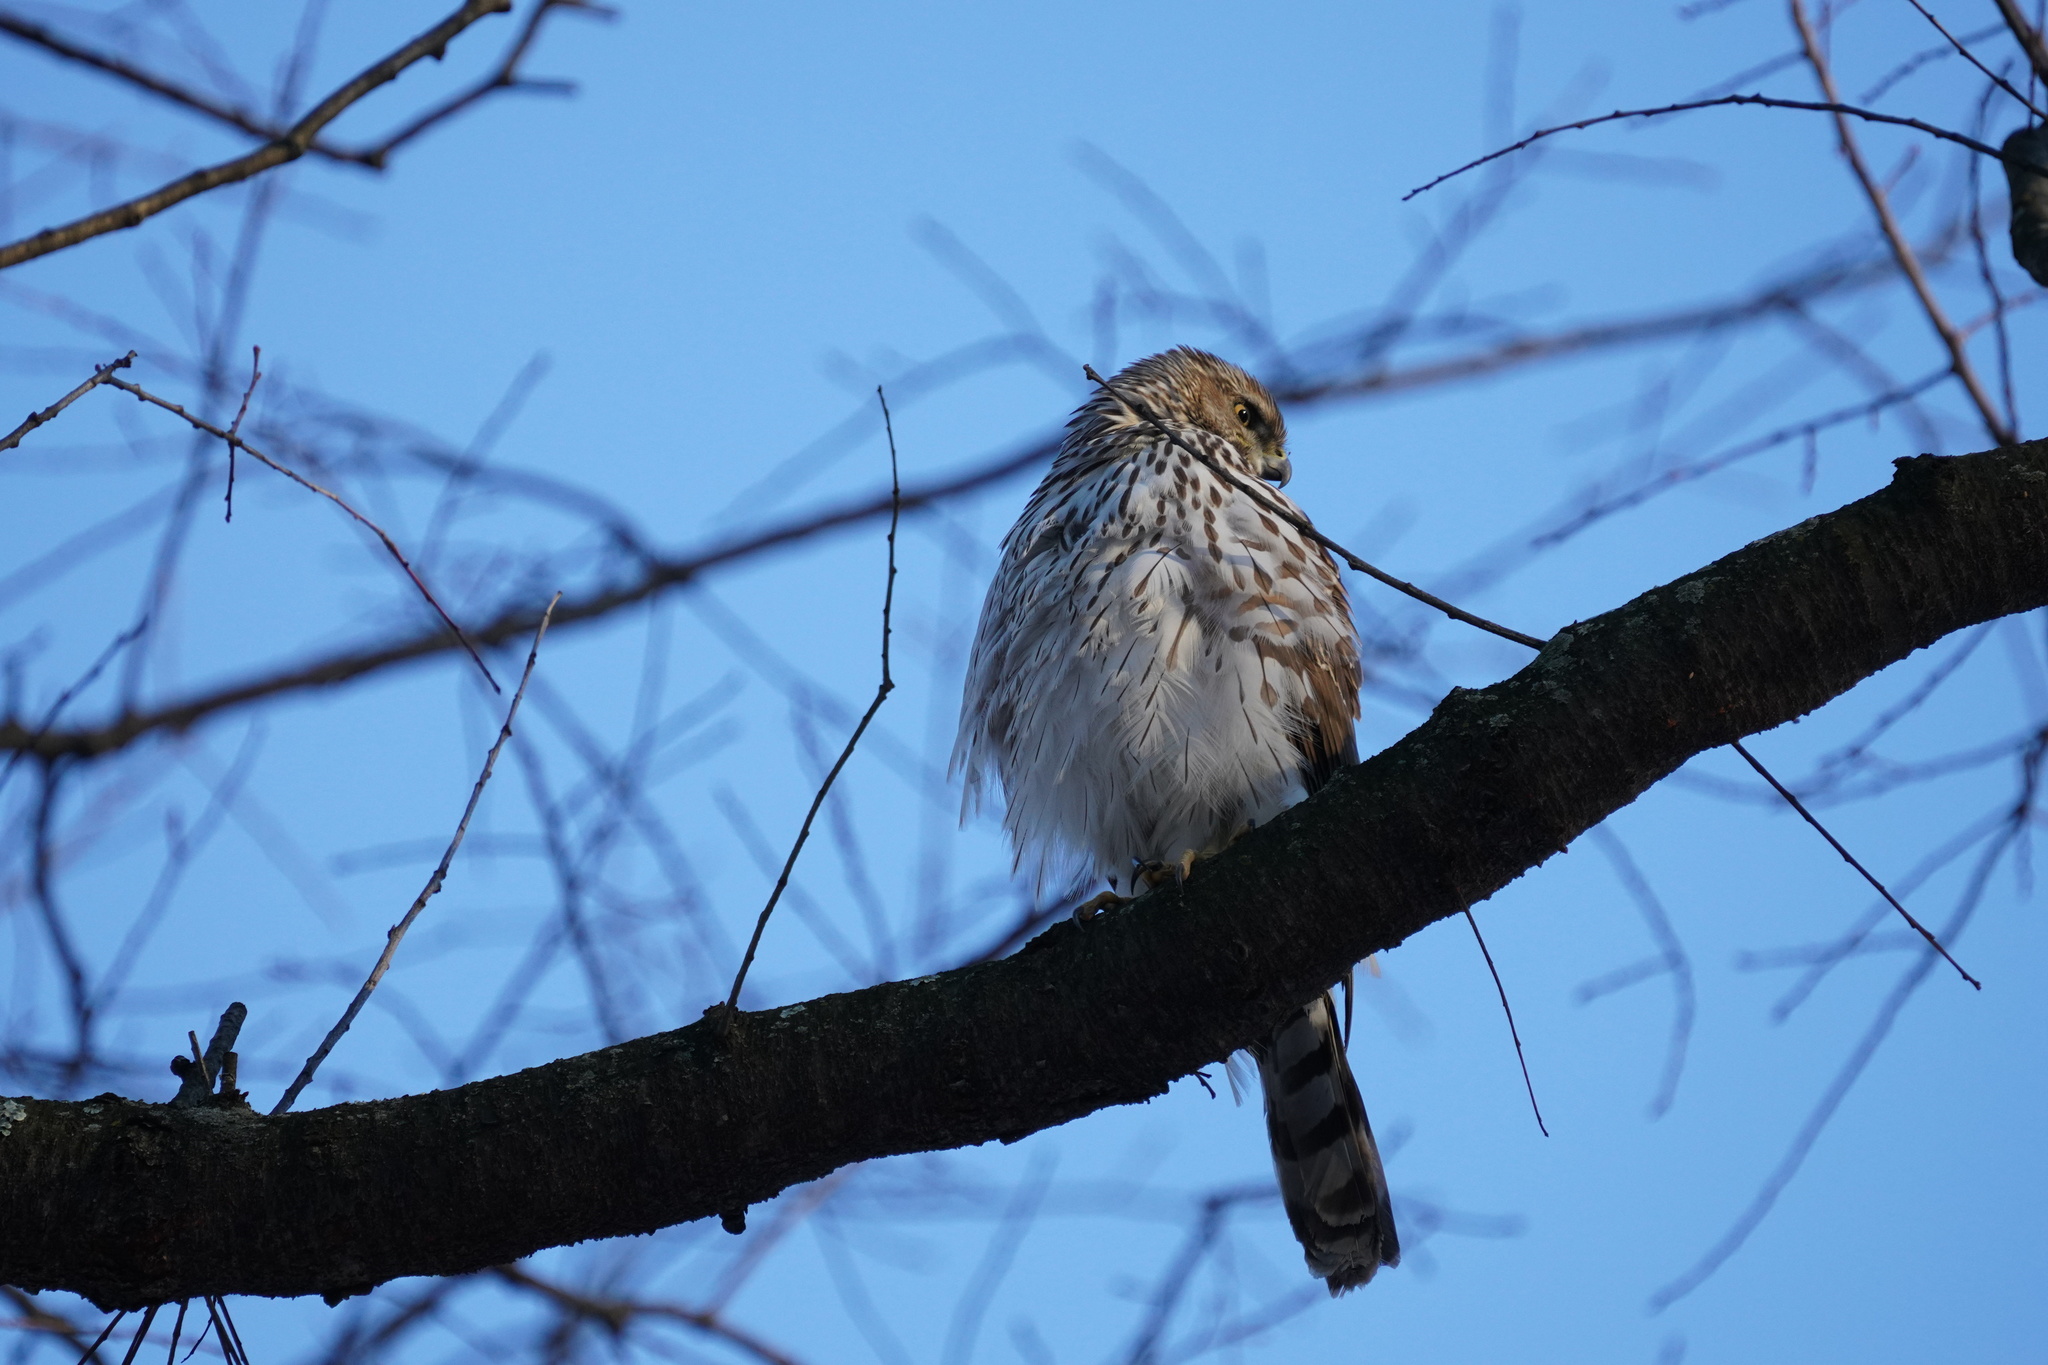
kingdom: Animalia
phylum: Chordata
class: Aves
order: Accipitriformes
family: Accipitridae
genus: Accipiter
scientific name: Accipiter cooperii
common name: Cooper's hawk
